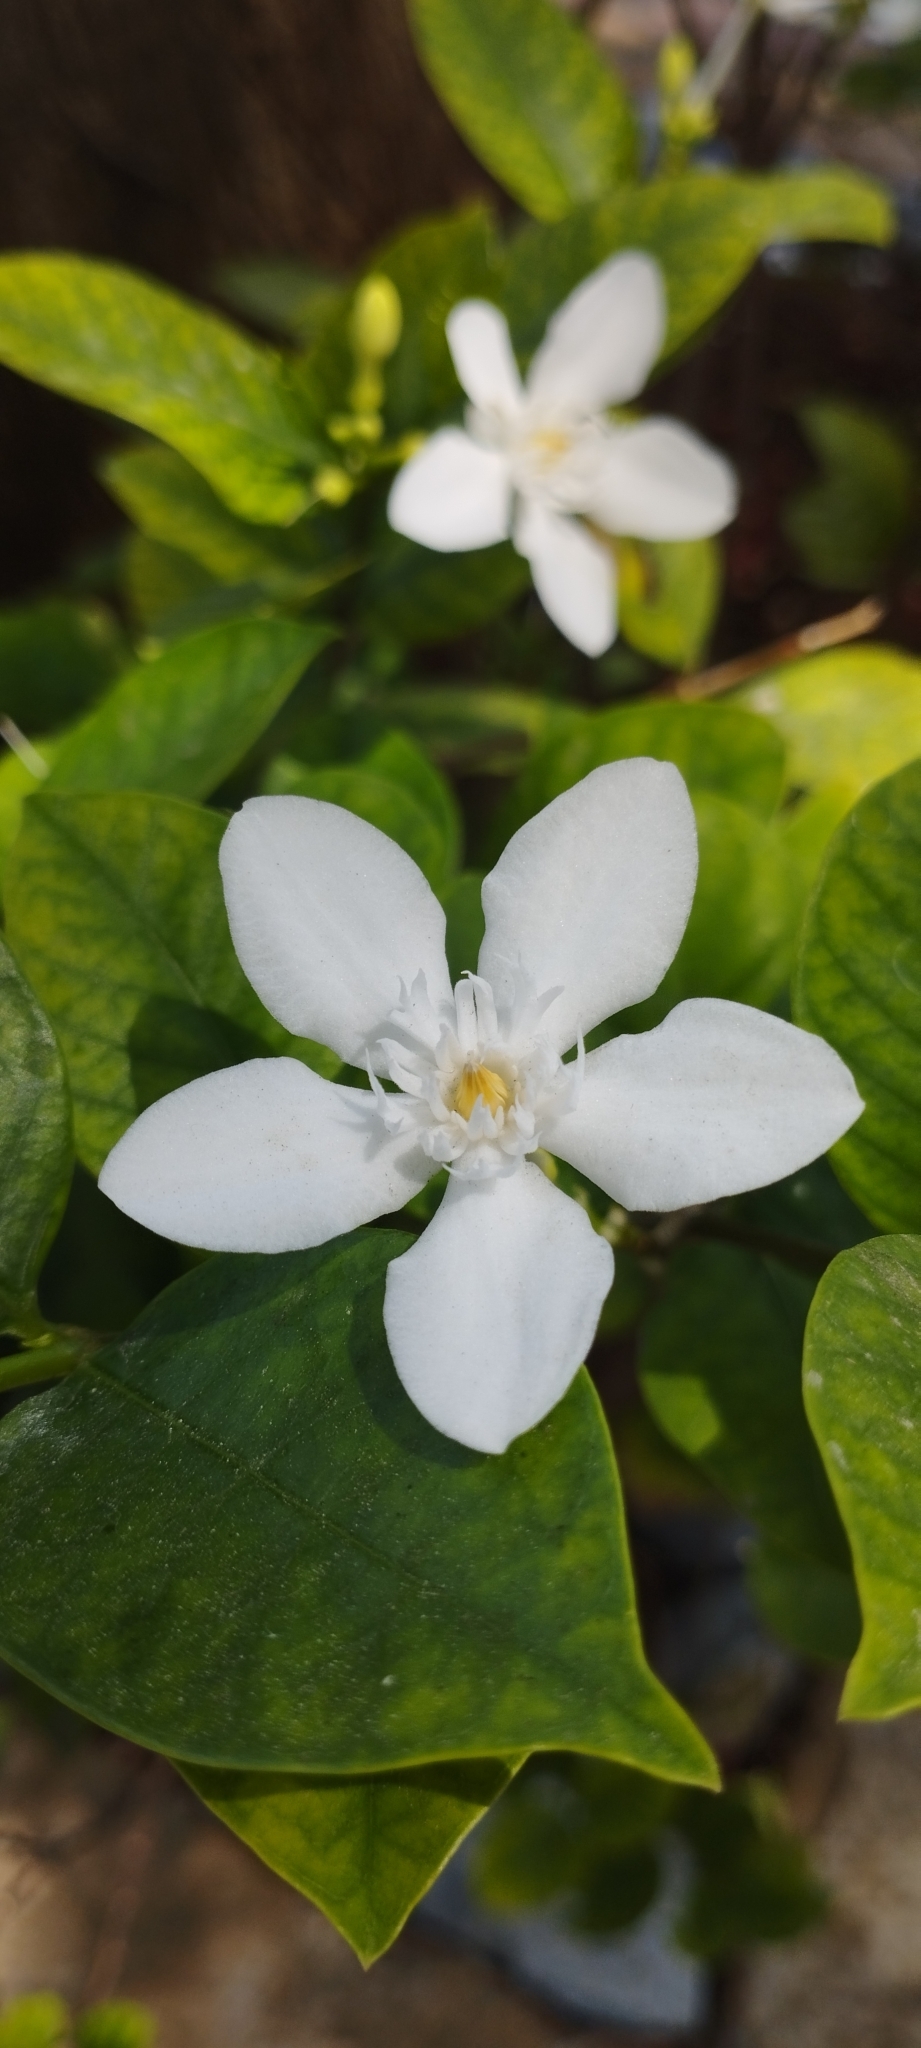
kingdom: Plantae
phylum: Tracheophyta
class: Magnoliopsida
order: Gentianales
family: Apocynaceae
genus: Wrightia
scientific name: Wrightia antidysenterica
